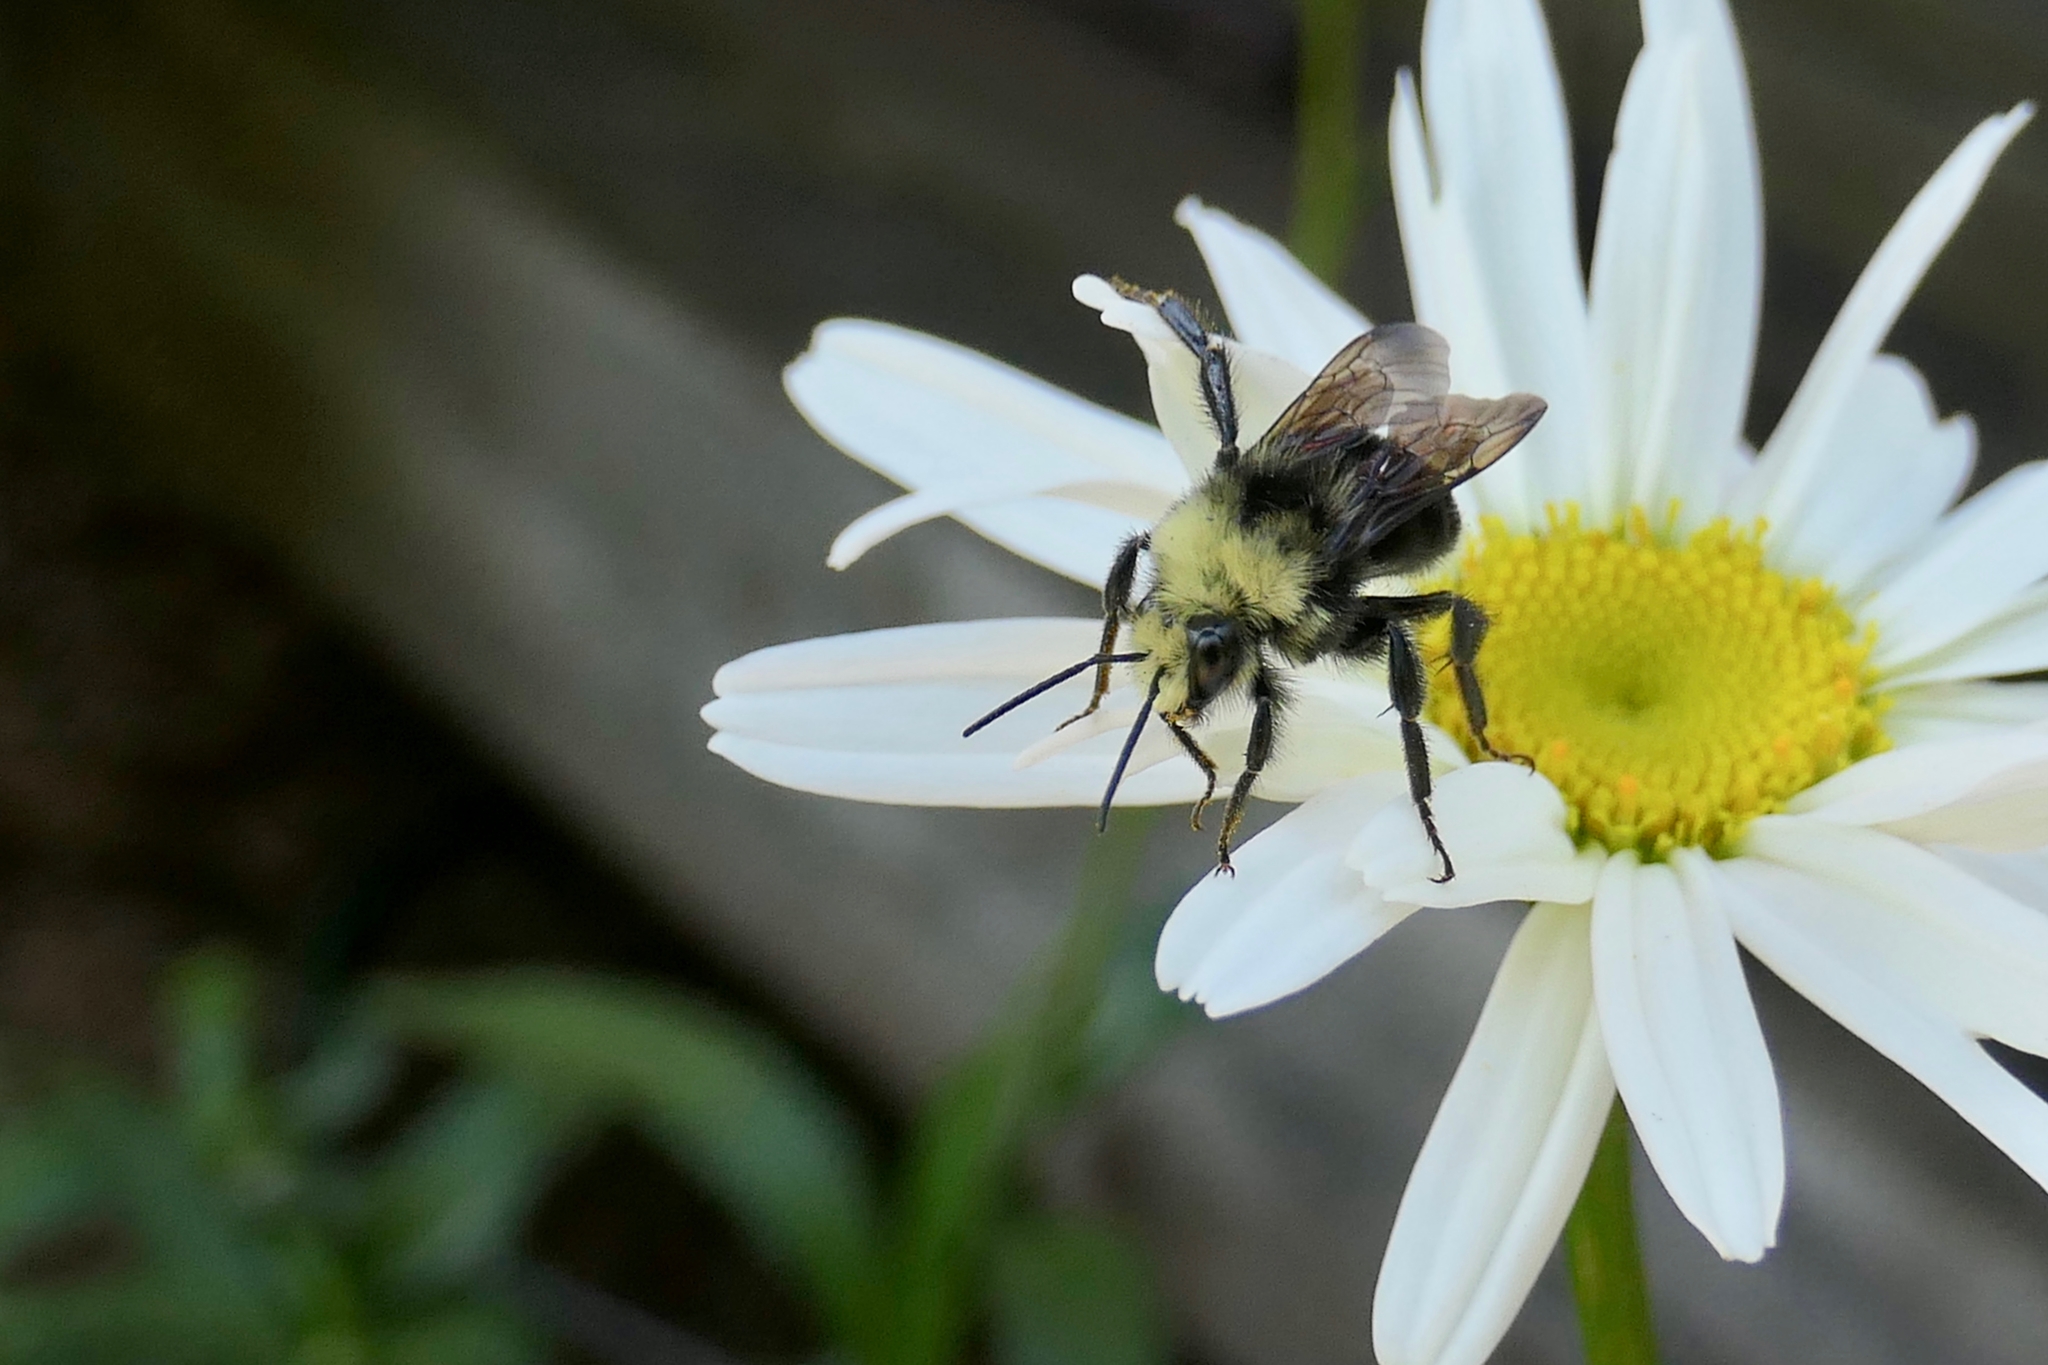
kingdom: Animalia
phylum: Arthropoda
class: Insecta
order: Hymenoptera
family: Apidae
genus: Bombus
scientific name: Bombus vosnesenskii
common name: Vosnesensky bumble bee
